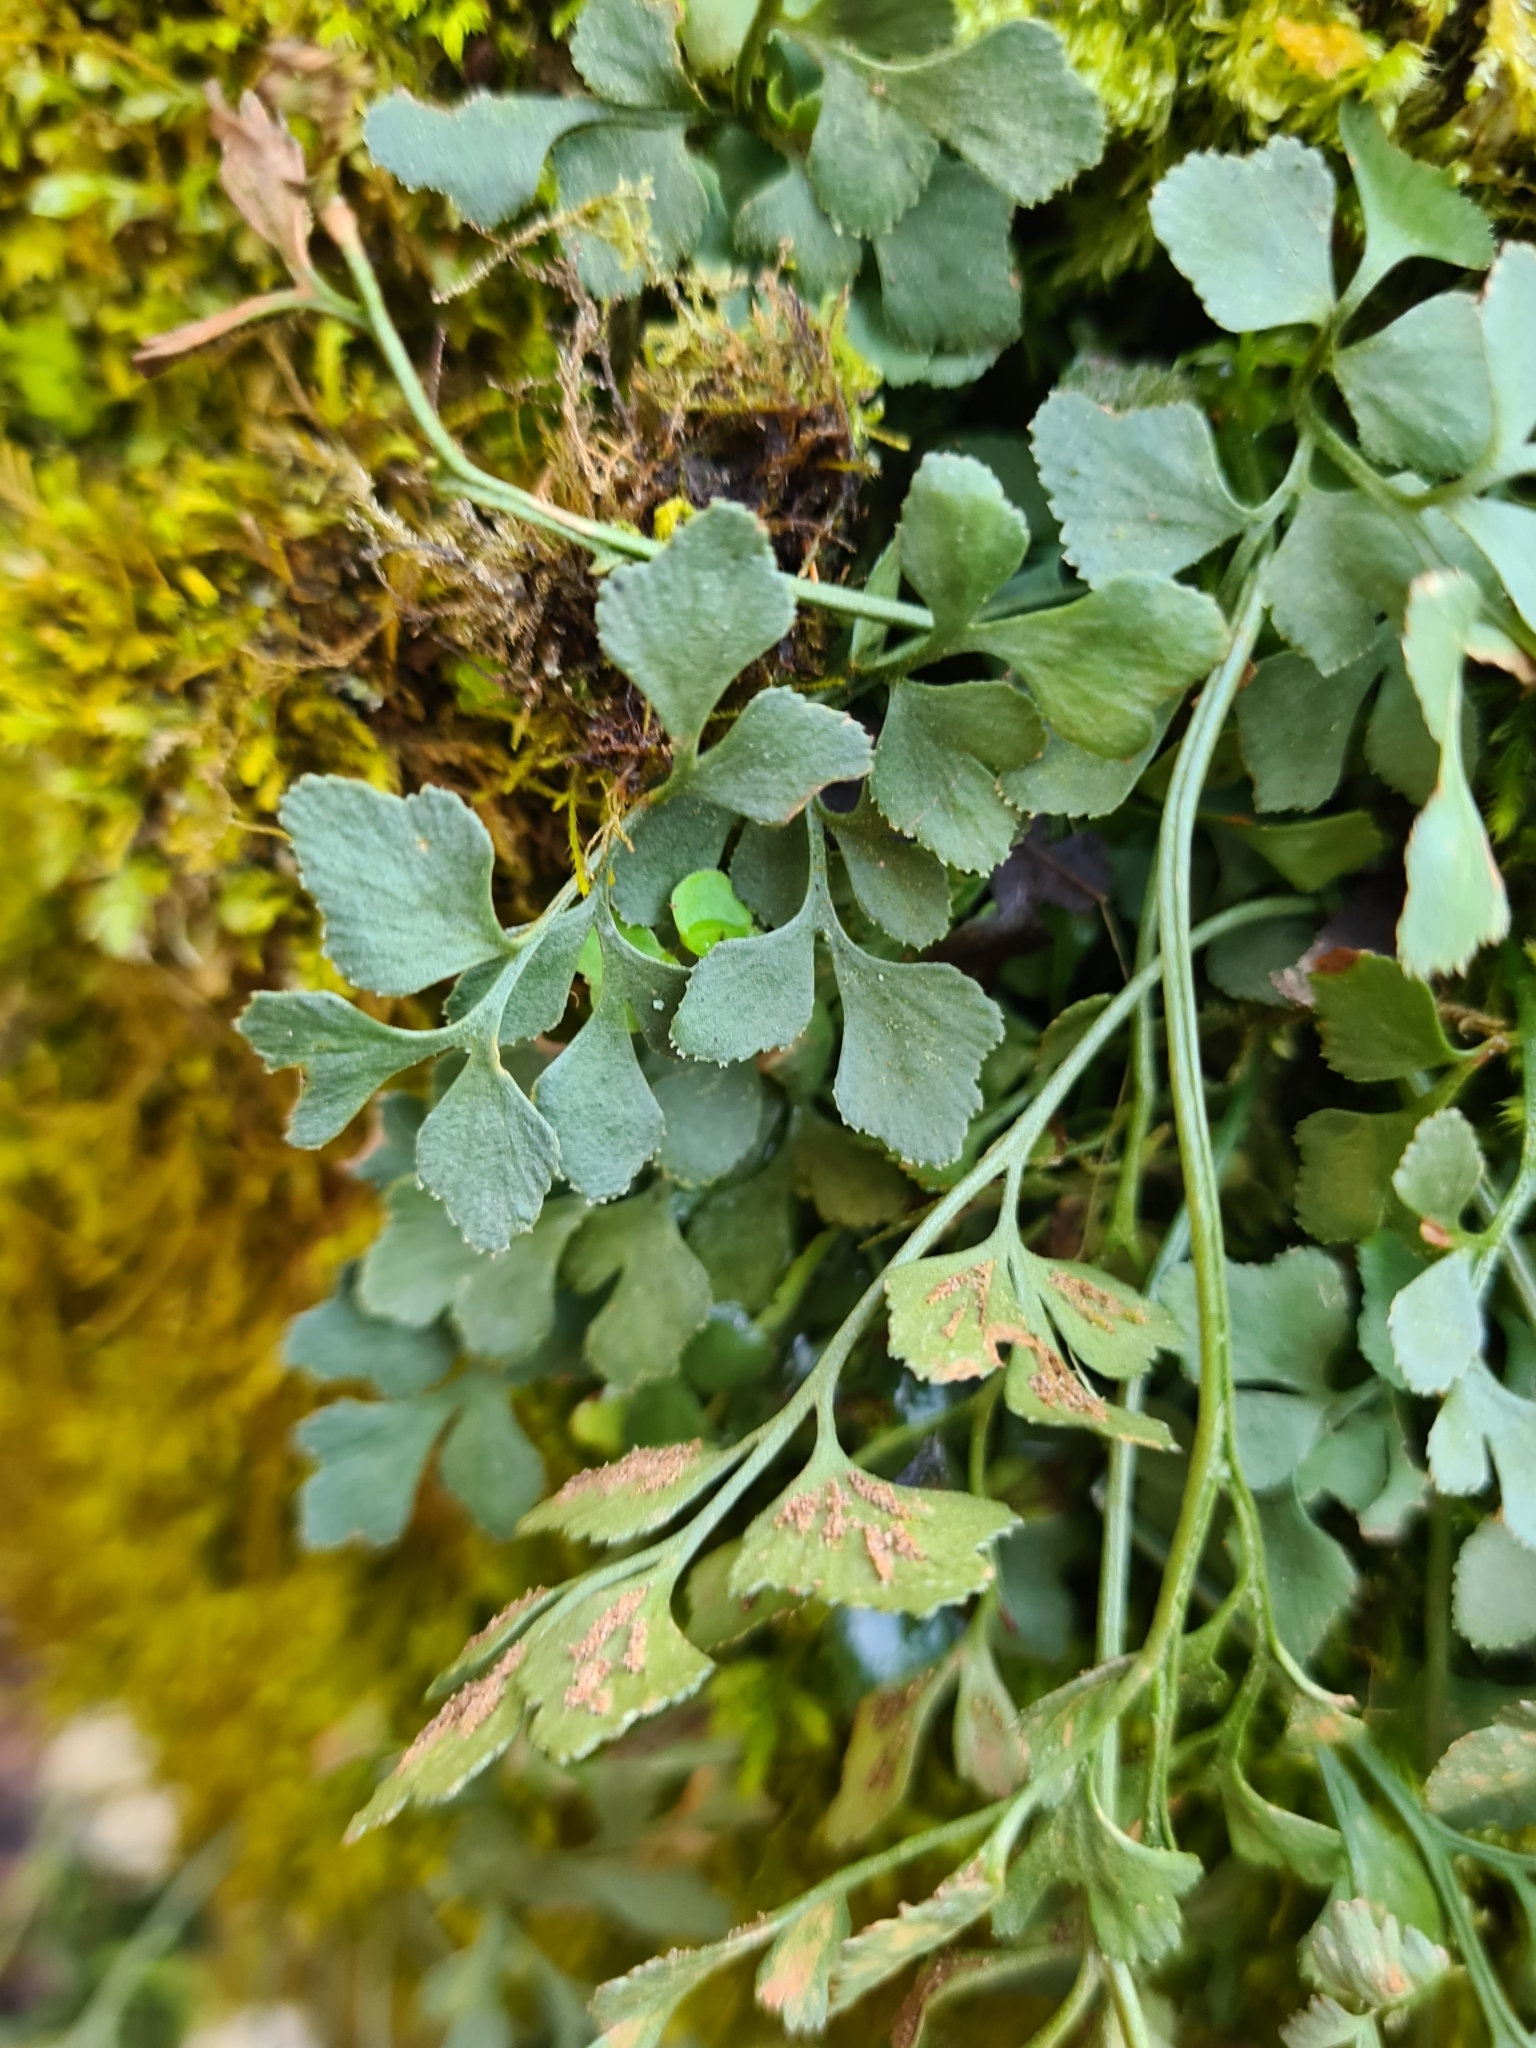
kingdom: Plantae
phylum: Tracheophyta
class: Polypodiopsida
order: Polypodiales
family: Aspleniaceae
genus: Asplenium
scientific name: Asplenium ruta-muraria
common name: Wall-rue
